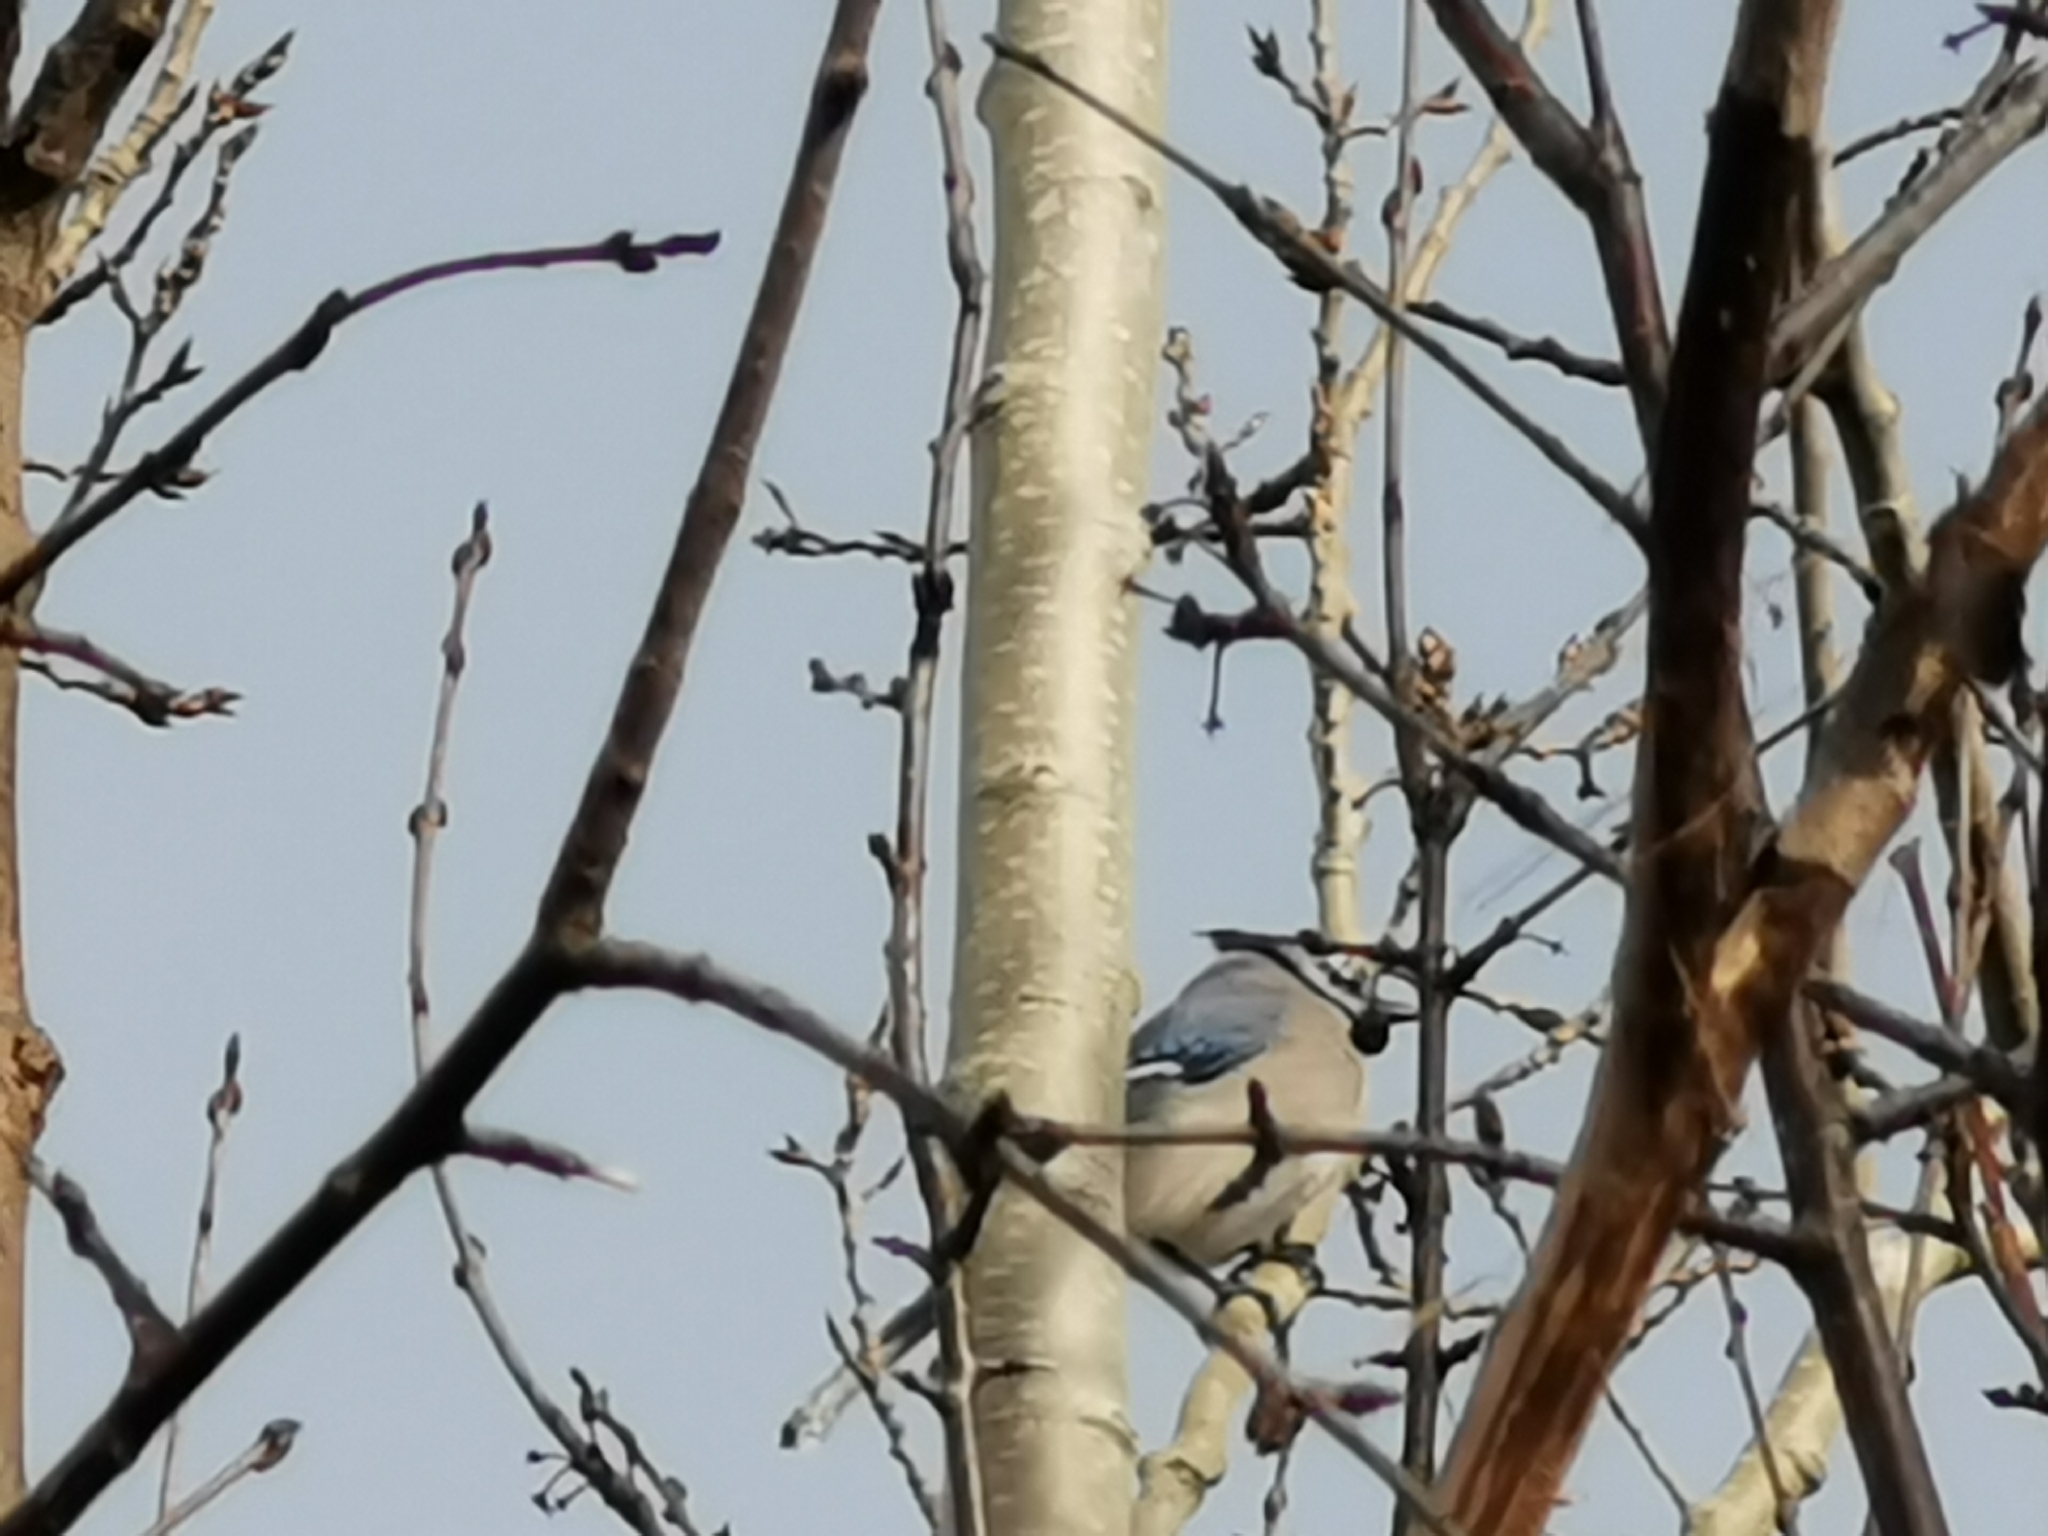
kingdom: Animalia
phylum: Chordata
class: Aves
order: Passeriformes
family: Corvidae
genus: Cyanocitta
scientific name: Cyanocitta cristata
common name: Blue jay
